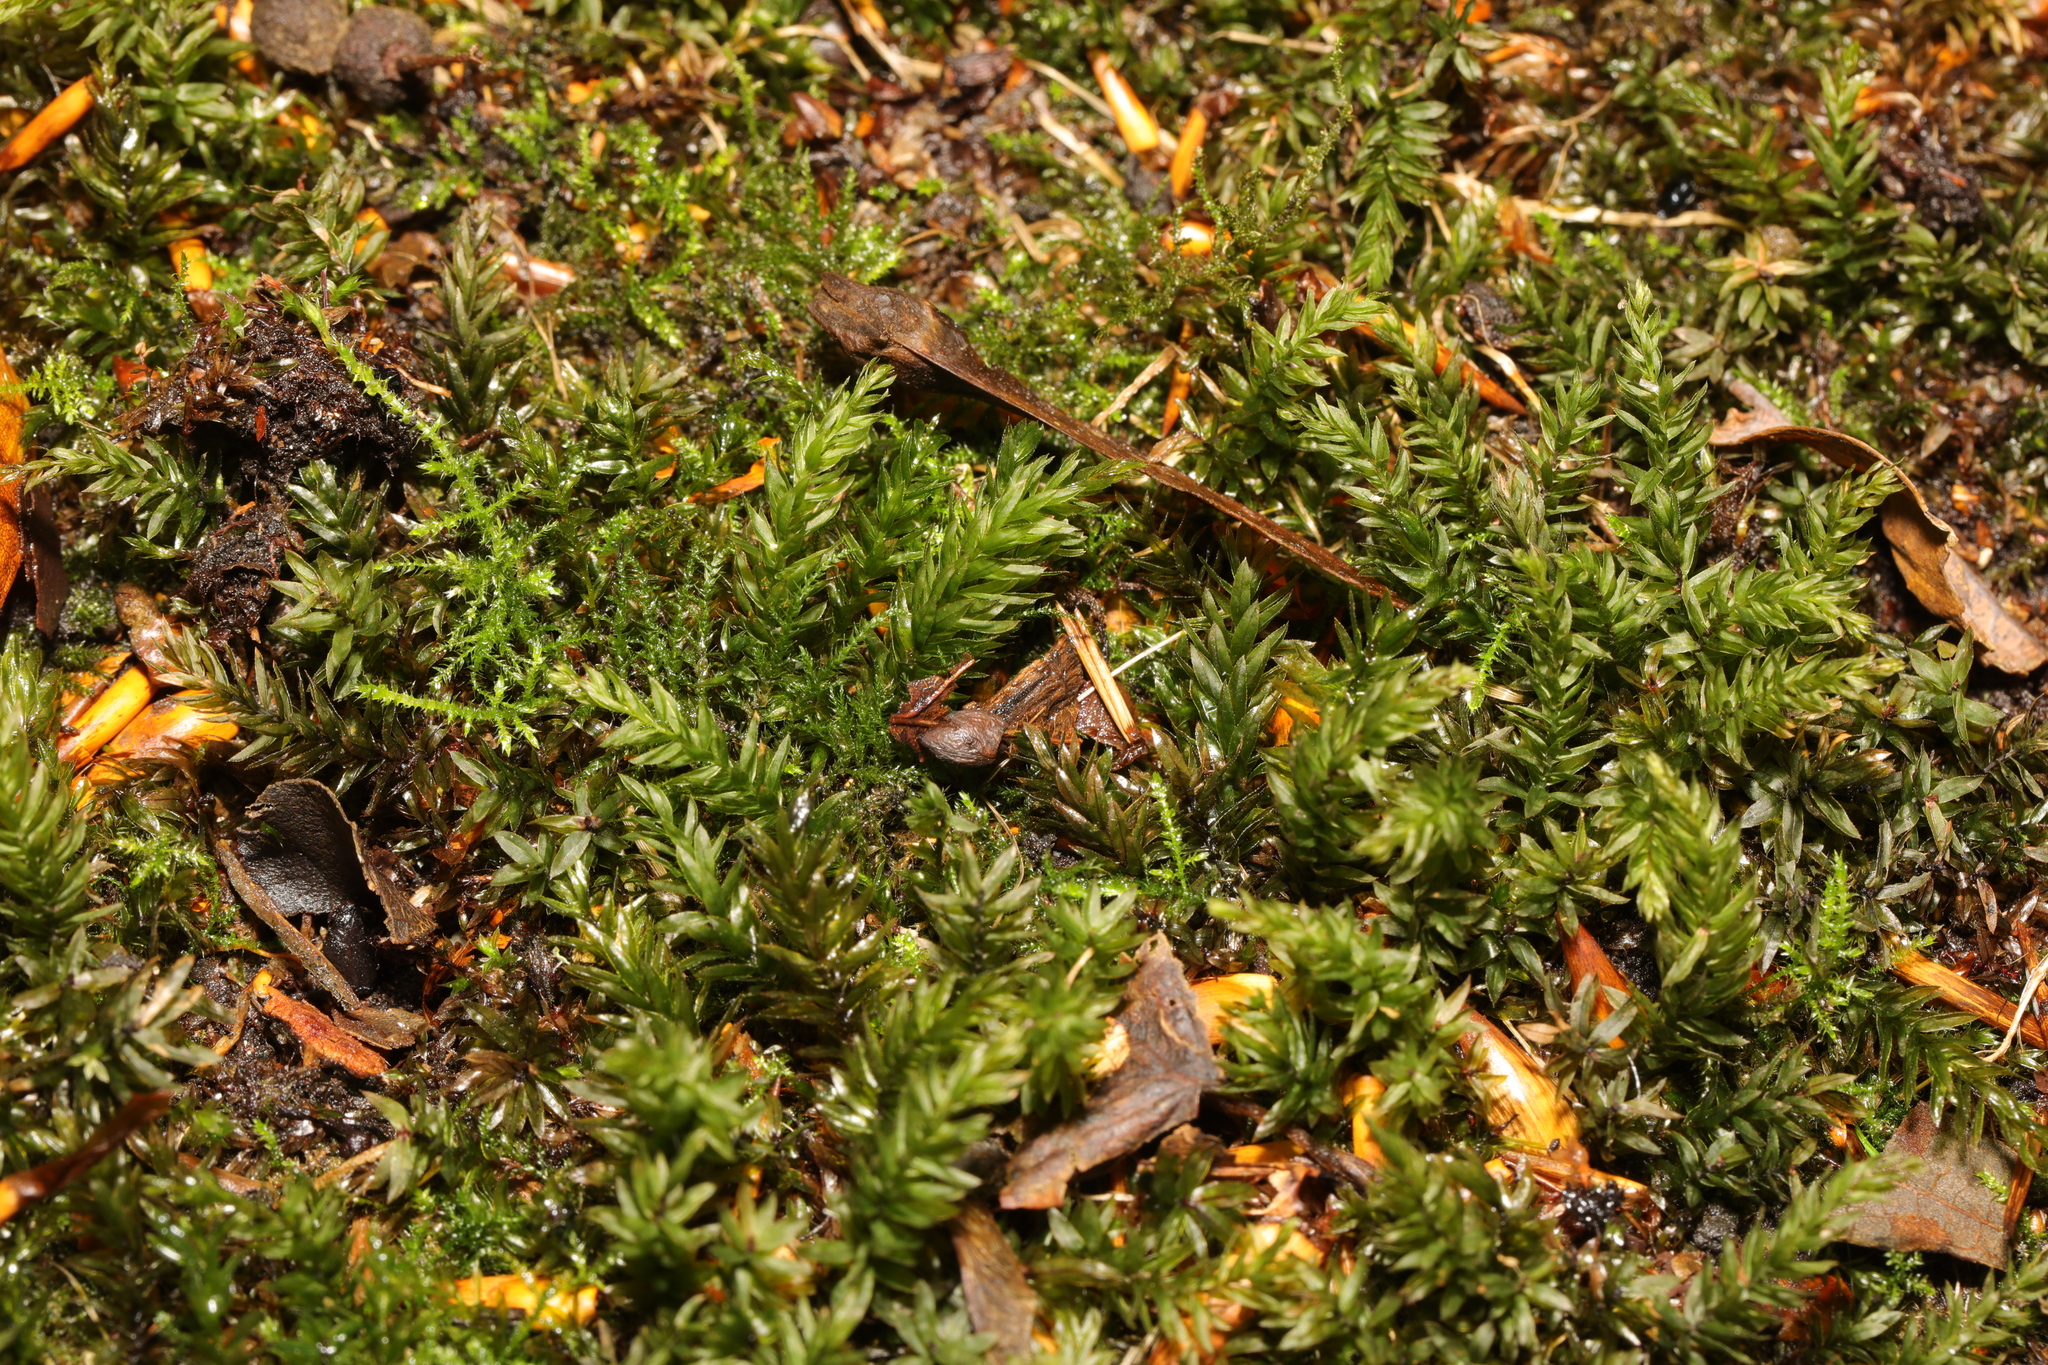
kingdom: Plantae
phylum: Bryophyta
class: Bryopsida
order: Bryales
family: Mniaceae
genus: Mnium
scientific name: Mnium hornum
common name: Swan's-neck leafy moss
